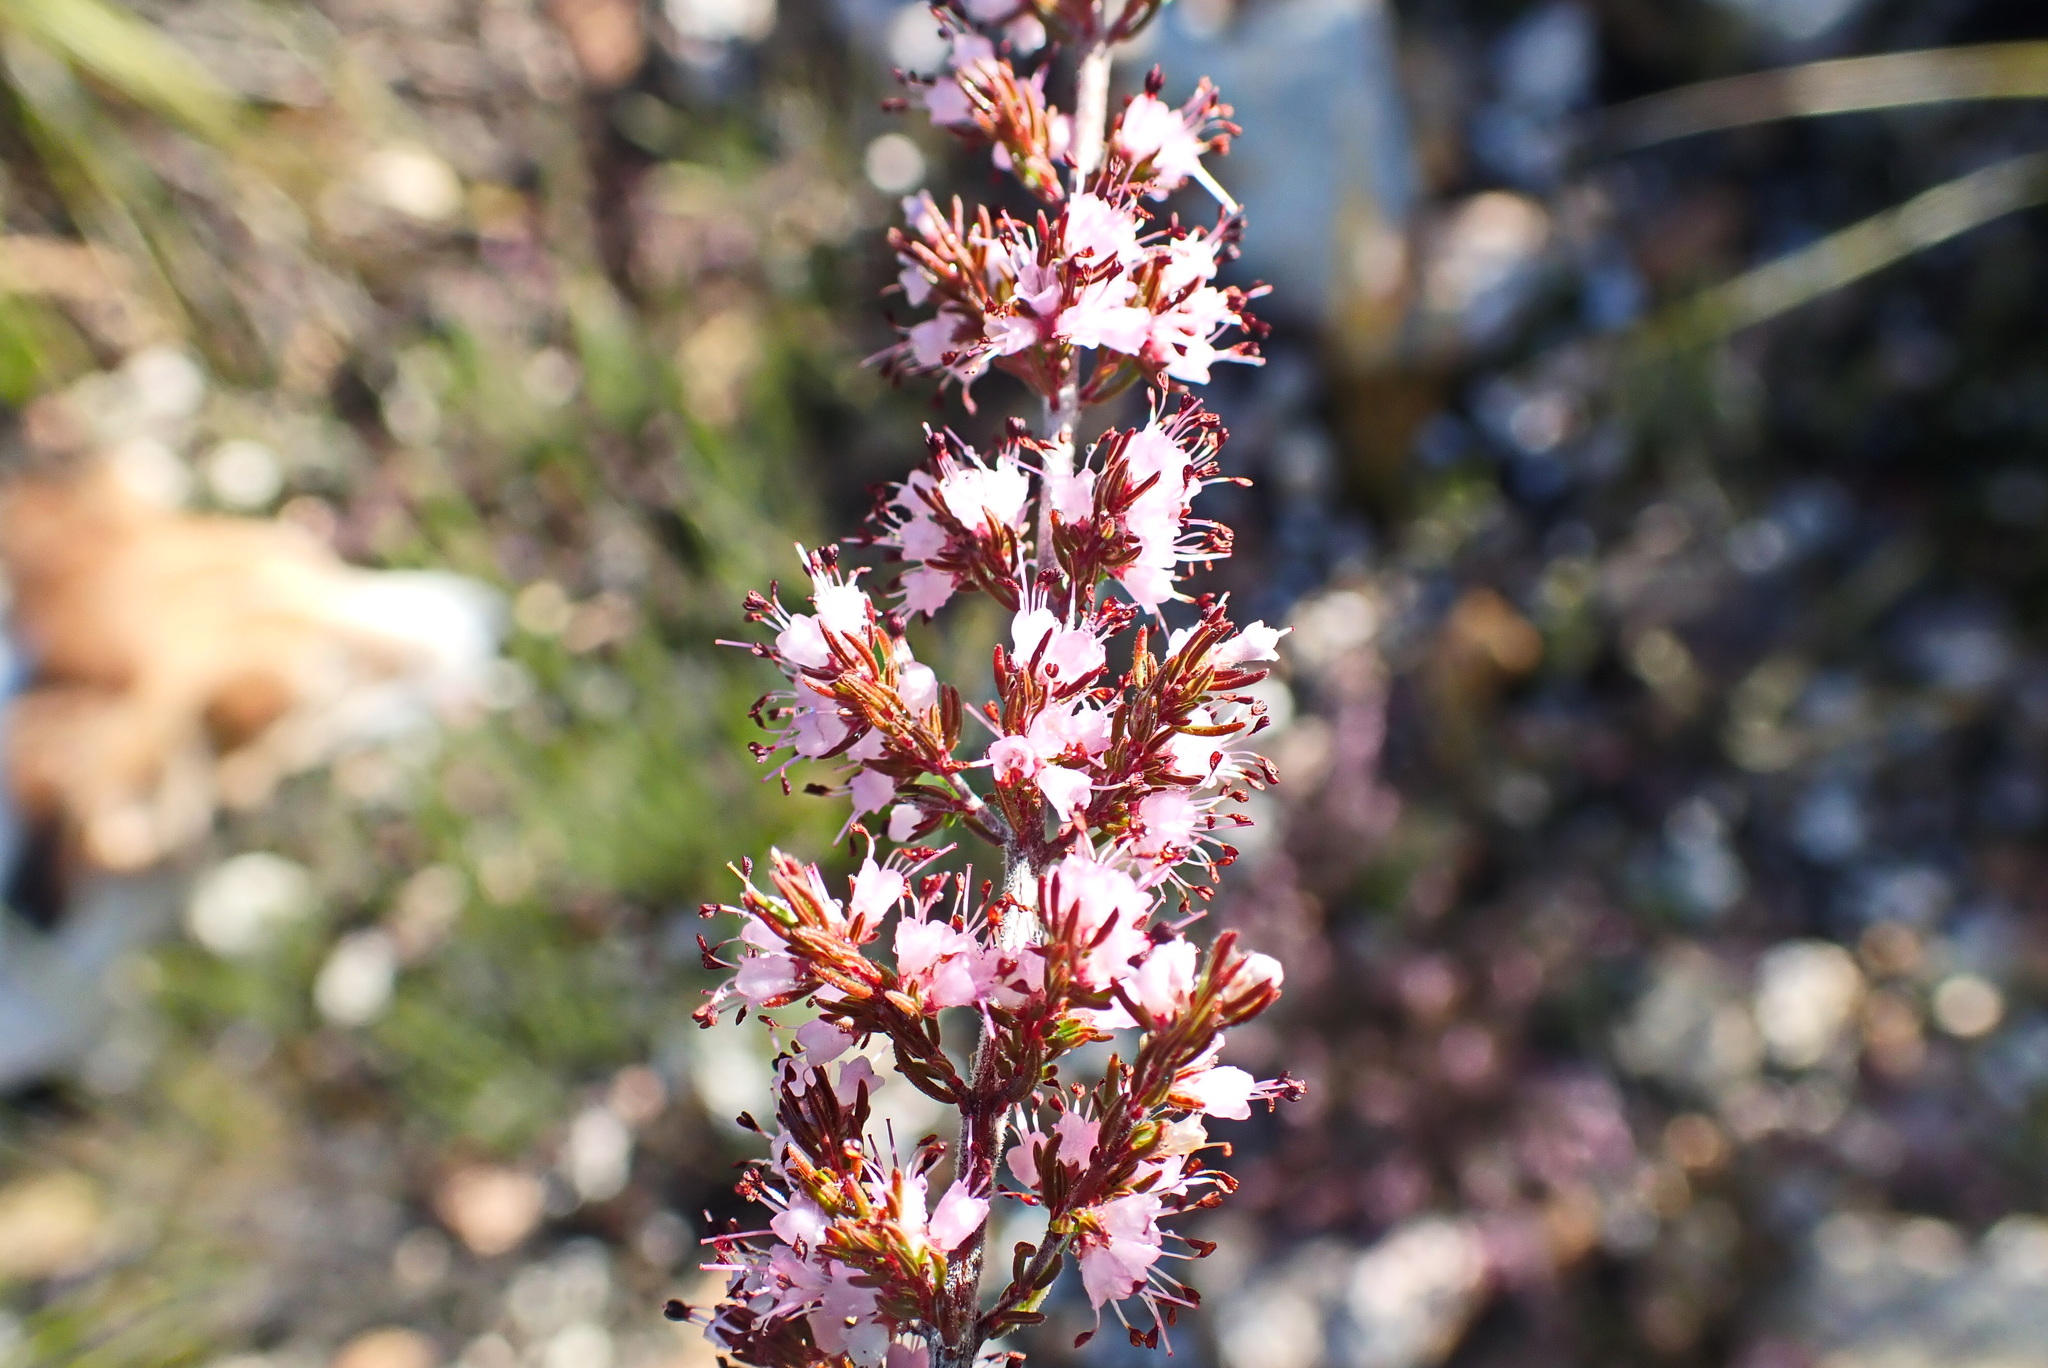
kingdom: Plantae
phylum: Tracheophyta
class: Magnoliopsida
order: Ericales
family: Ericaceae
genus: Erica
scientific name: Erica anguliger
